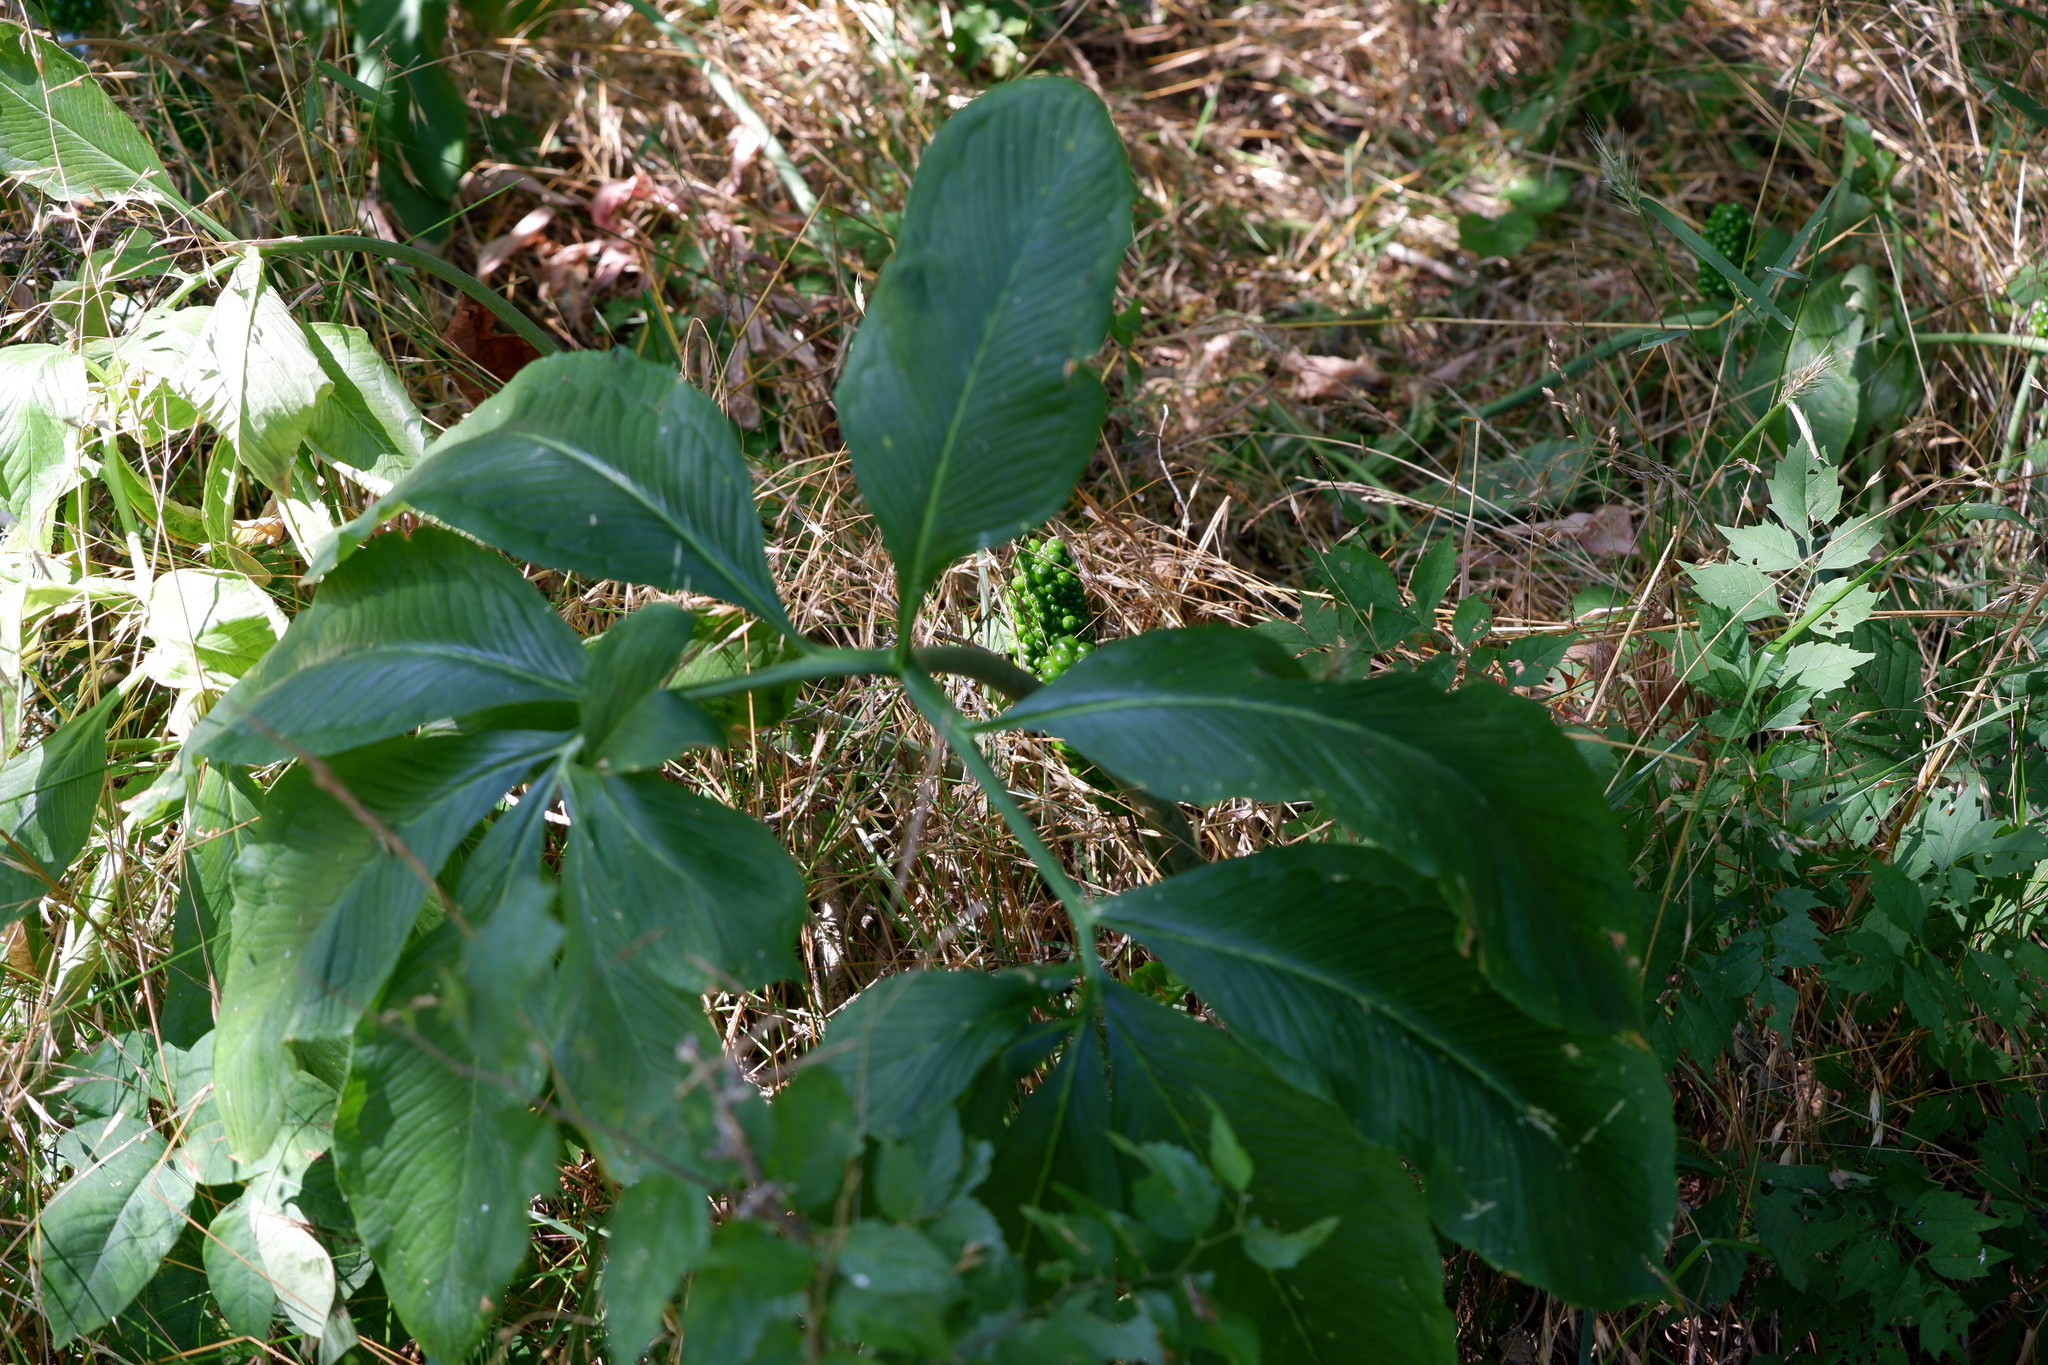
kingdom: Plantae
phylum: Tracheophyta
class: Liliopsida
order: Alismatales
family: Araceae
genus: Arisaema
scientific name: Arisaema dracontium
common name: Dragon-arum
